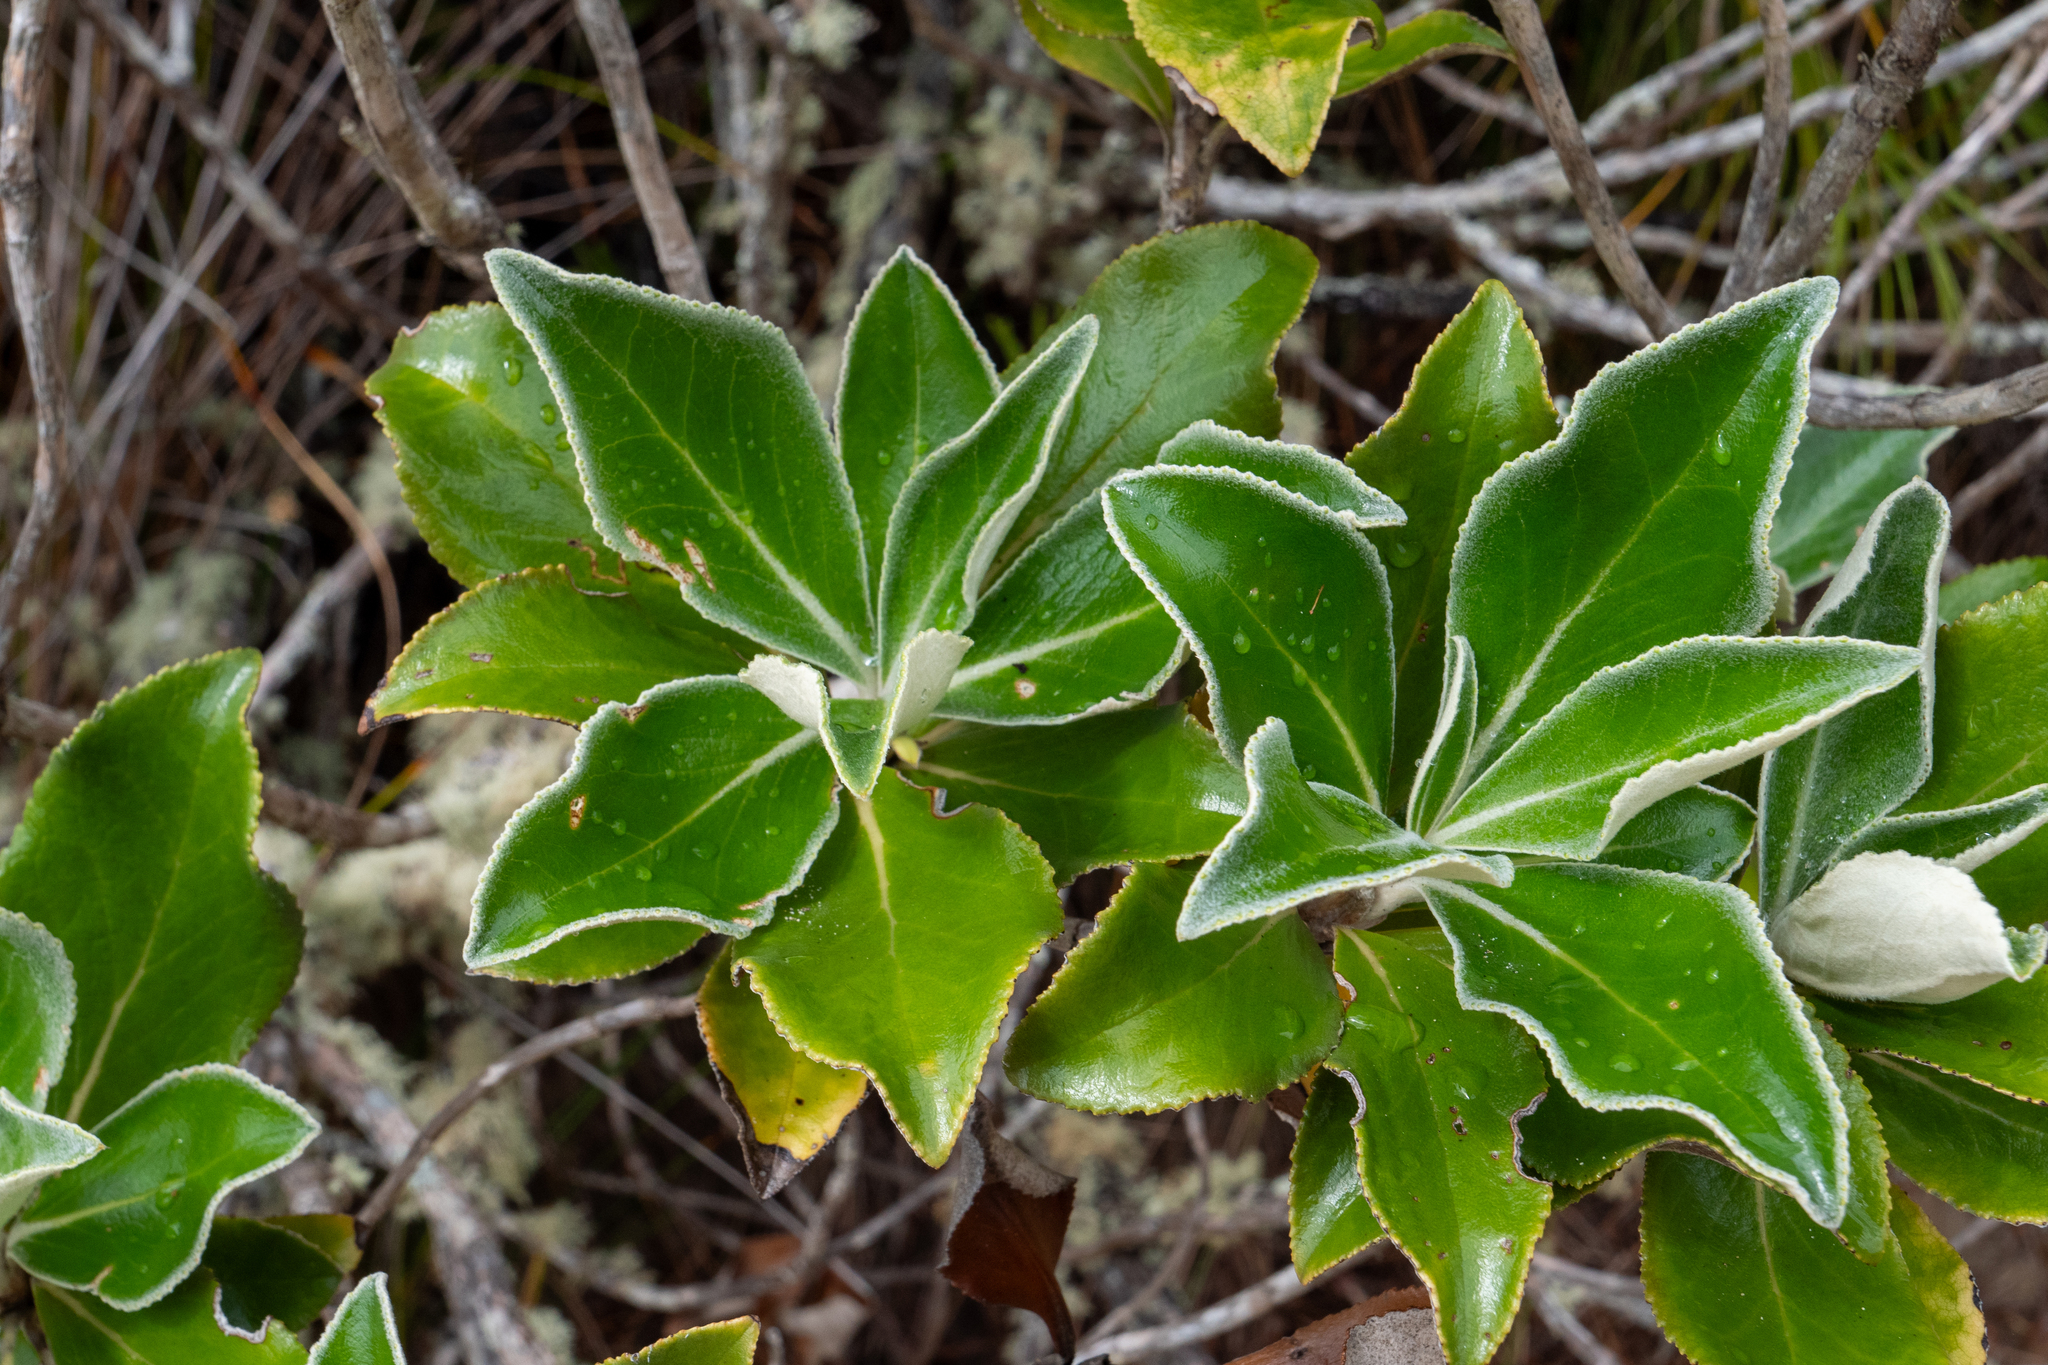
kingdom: Plantae
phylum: Tracheophyta
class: Magnoliopsida
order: Asterales
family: Asteraceae
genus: Macrolearia
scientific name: Macrolearia colensoi
